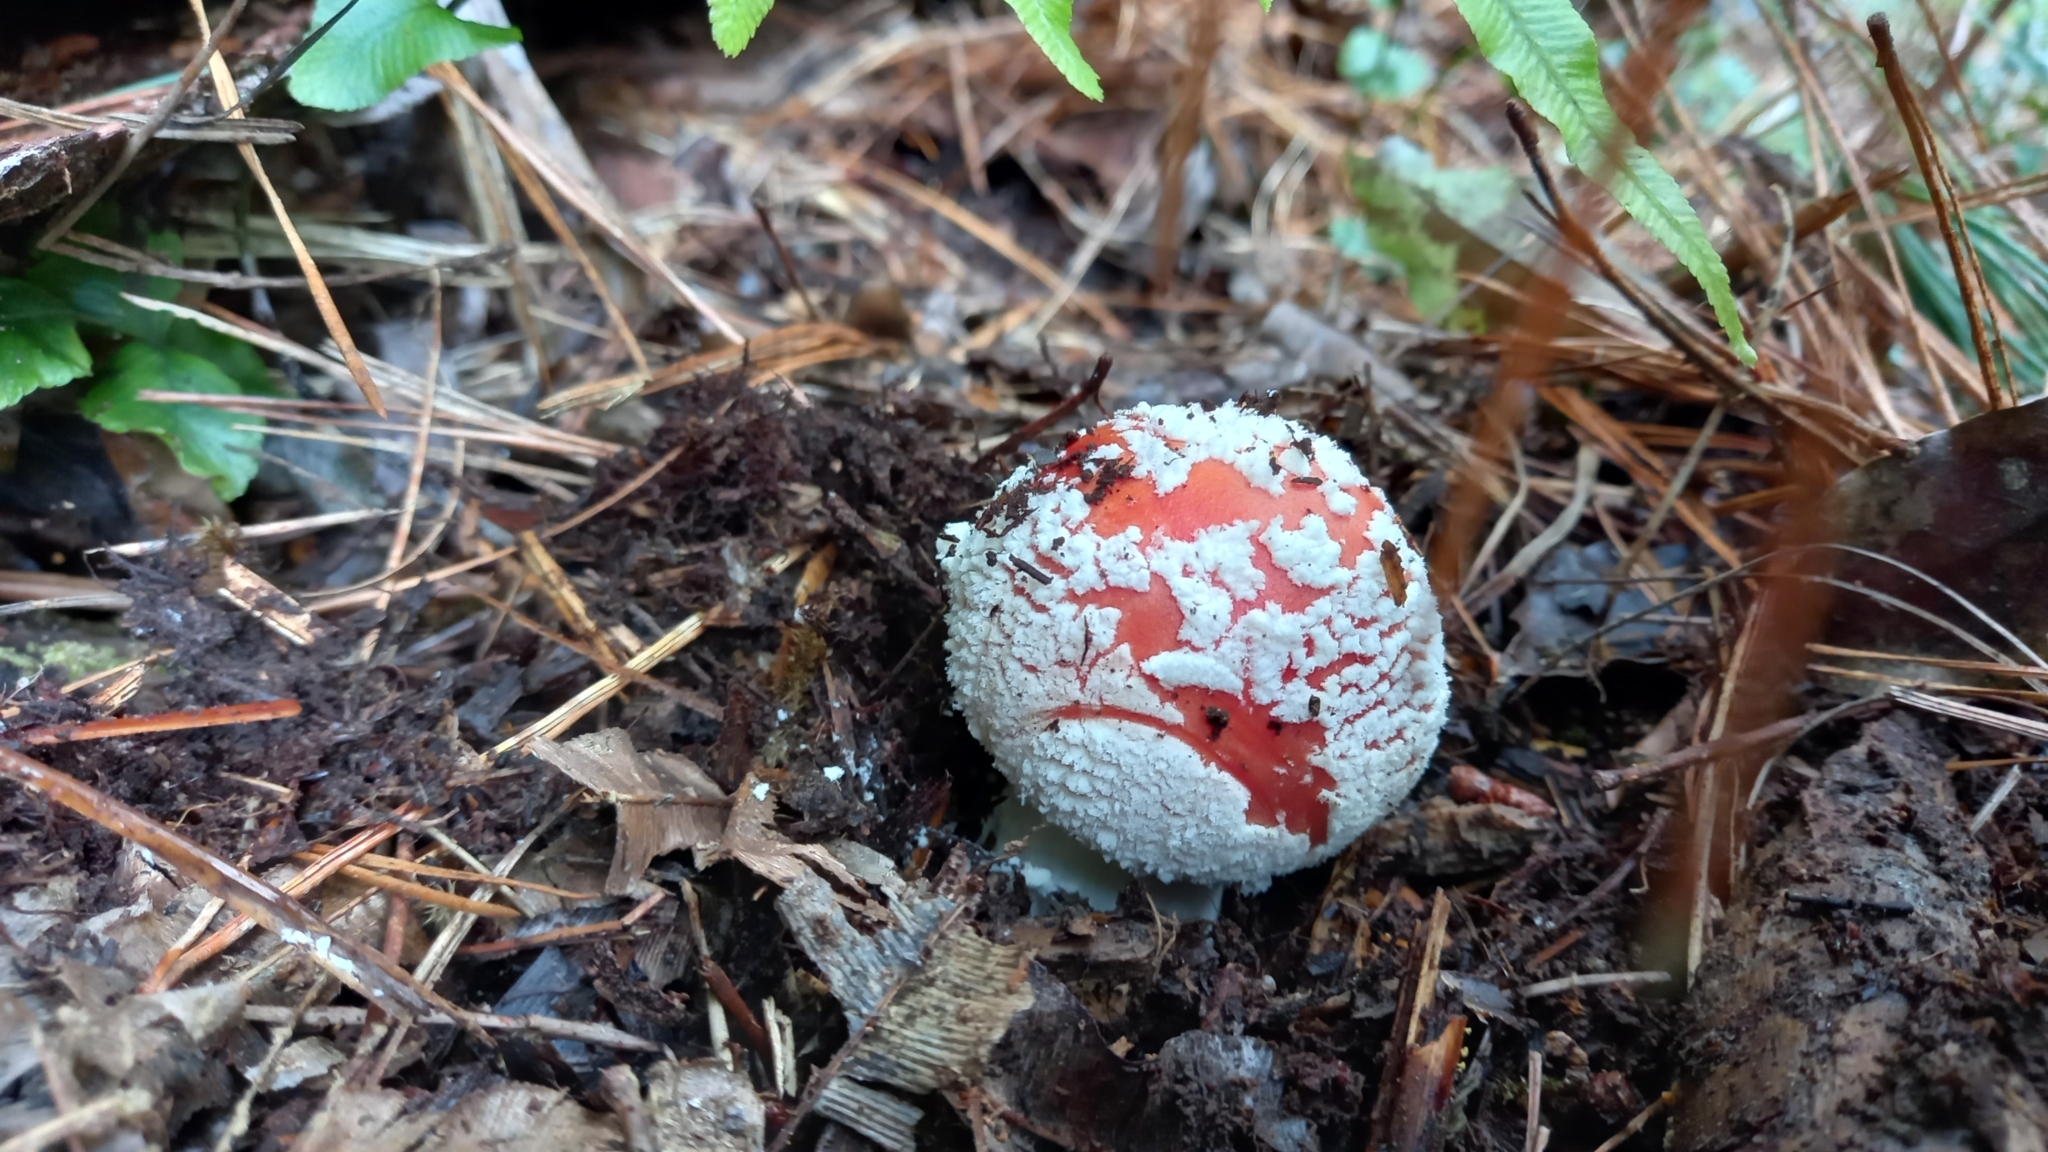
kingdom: Fungi
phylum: Basidiomycota
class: Agaricomycetes
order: Agaricales
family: Amanitaceae
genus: Amanita
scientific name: Amanita muscaria
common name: Fly agaric
